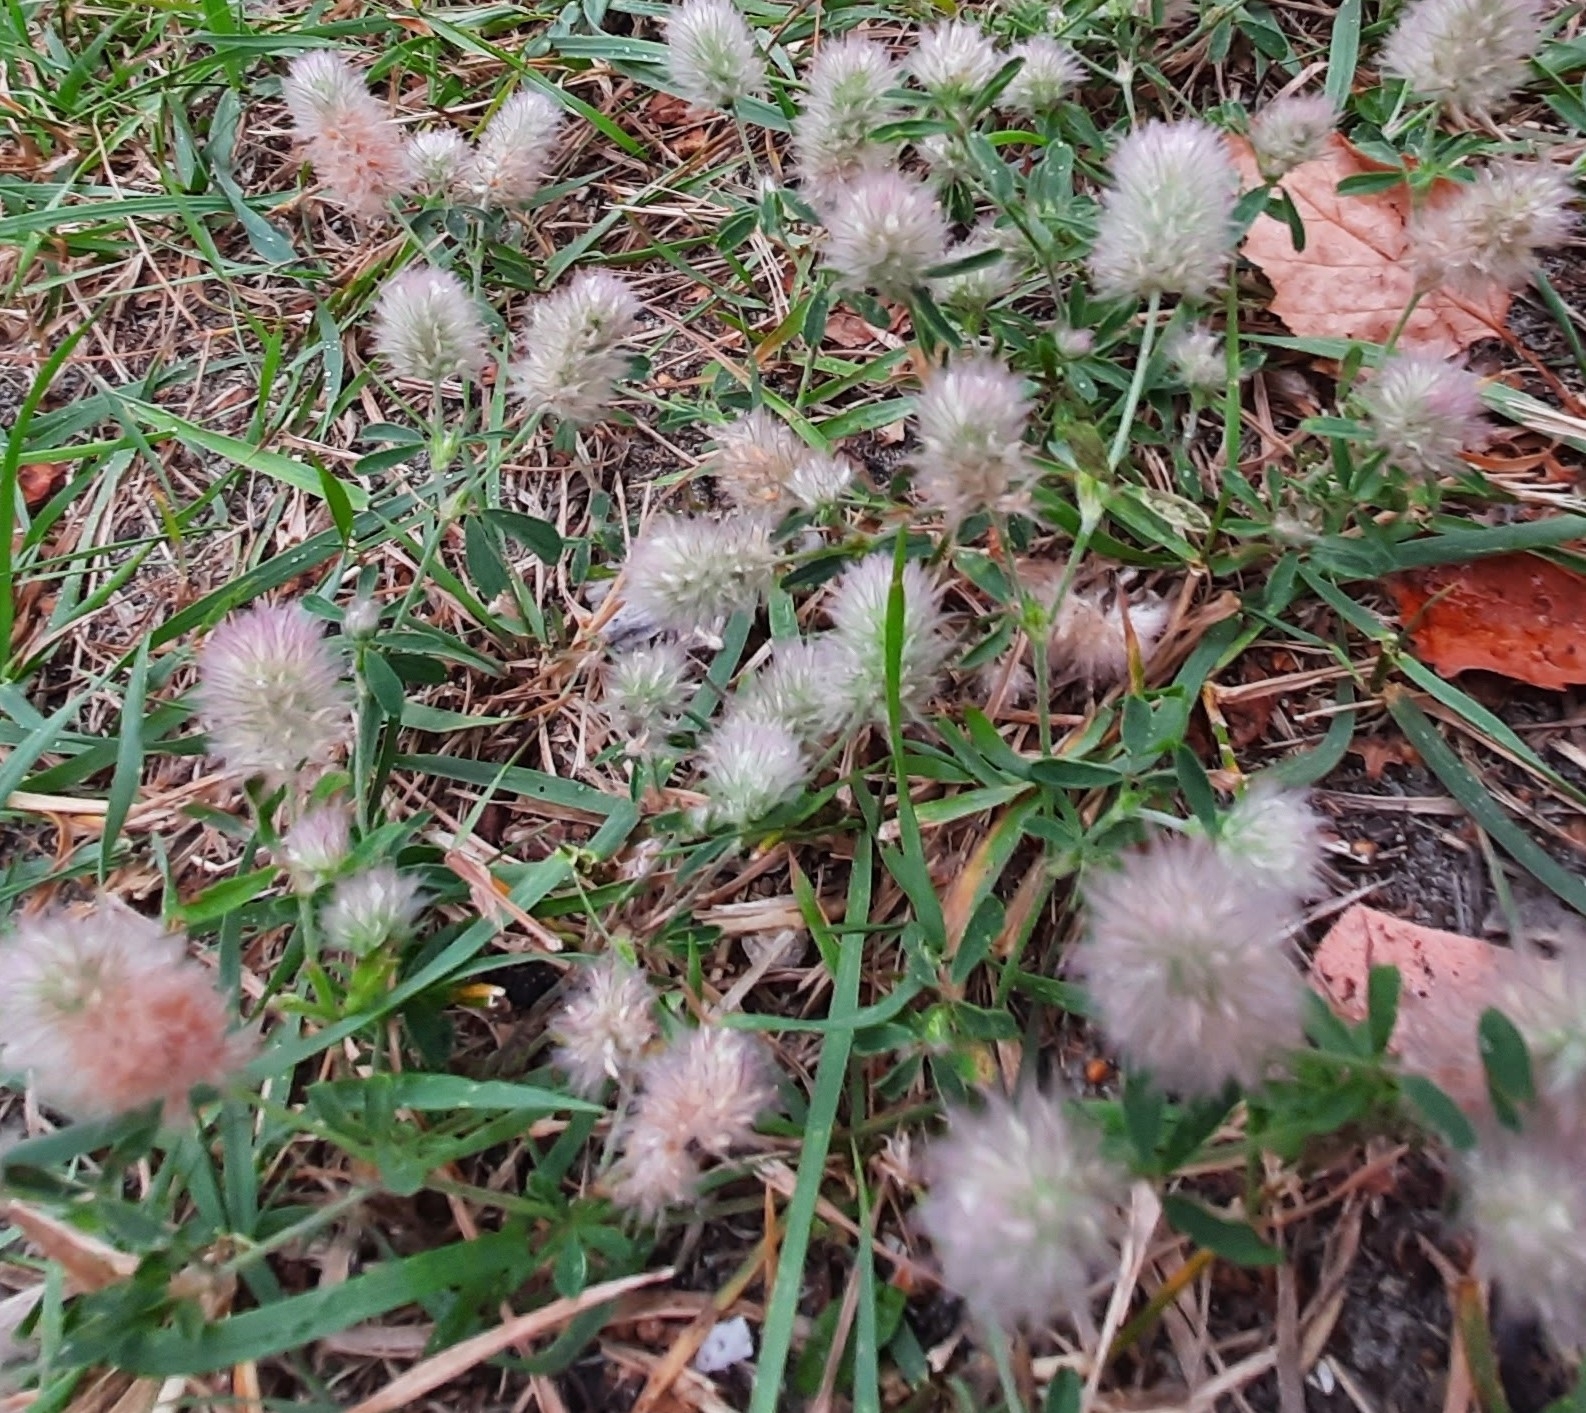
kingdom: Plantae
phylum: Tracheophyta
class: Magnoliopsida
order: Fabales
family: Fabaceae
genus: Trifolium
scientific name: Trifolium arvense
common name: Hare's-foot clover
